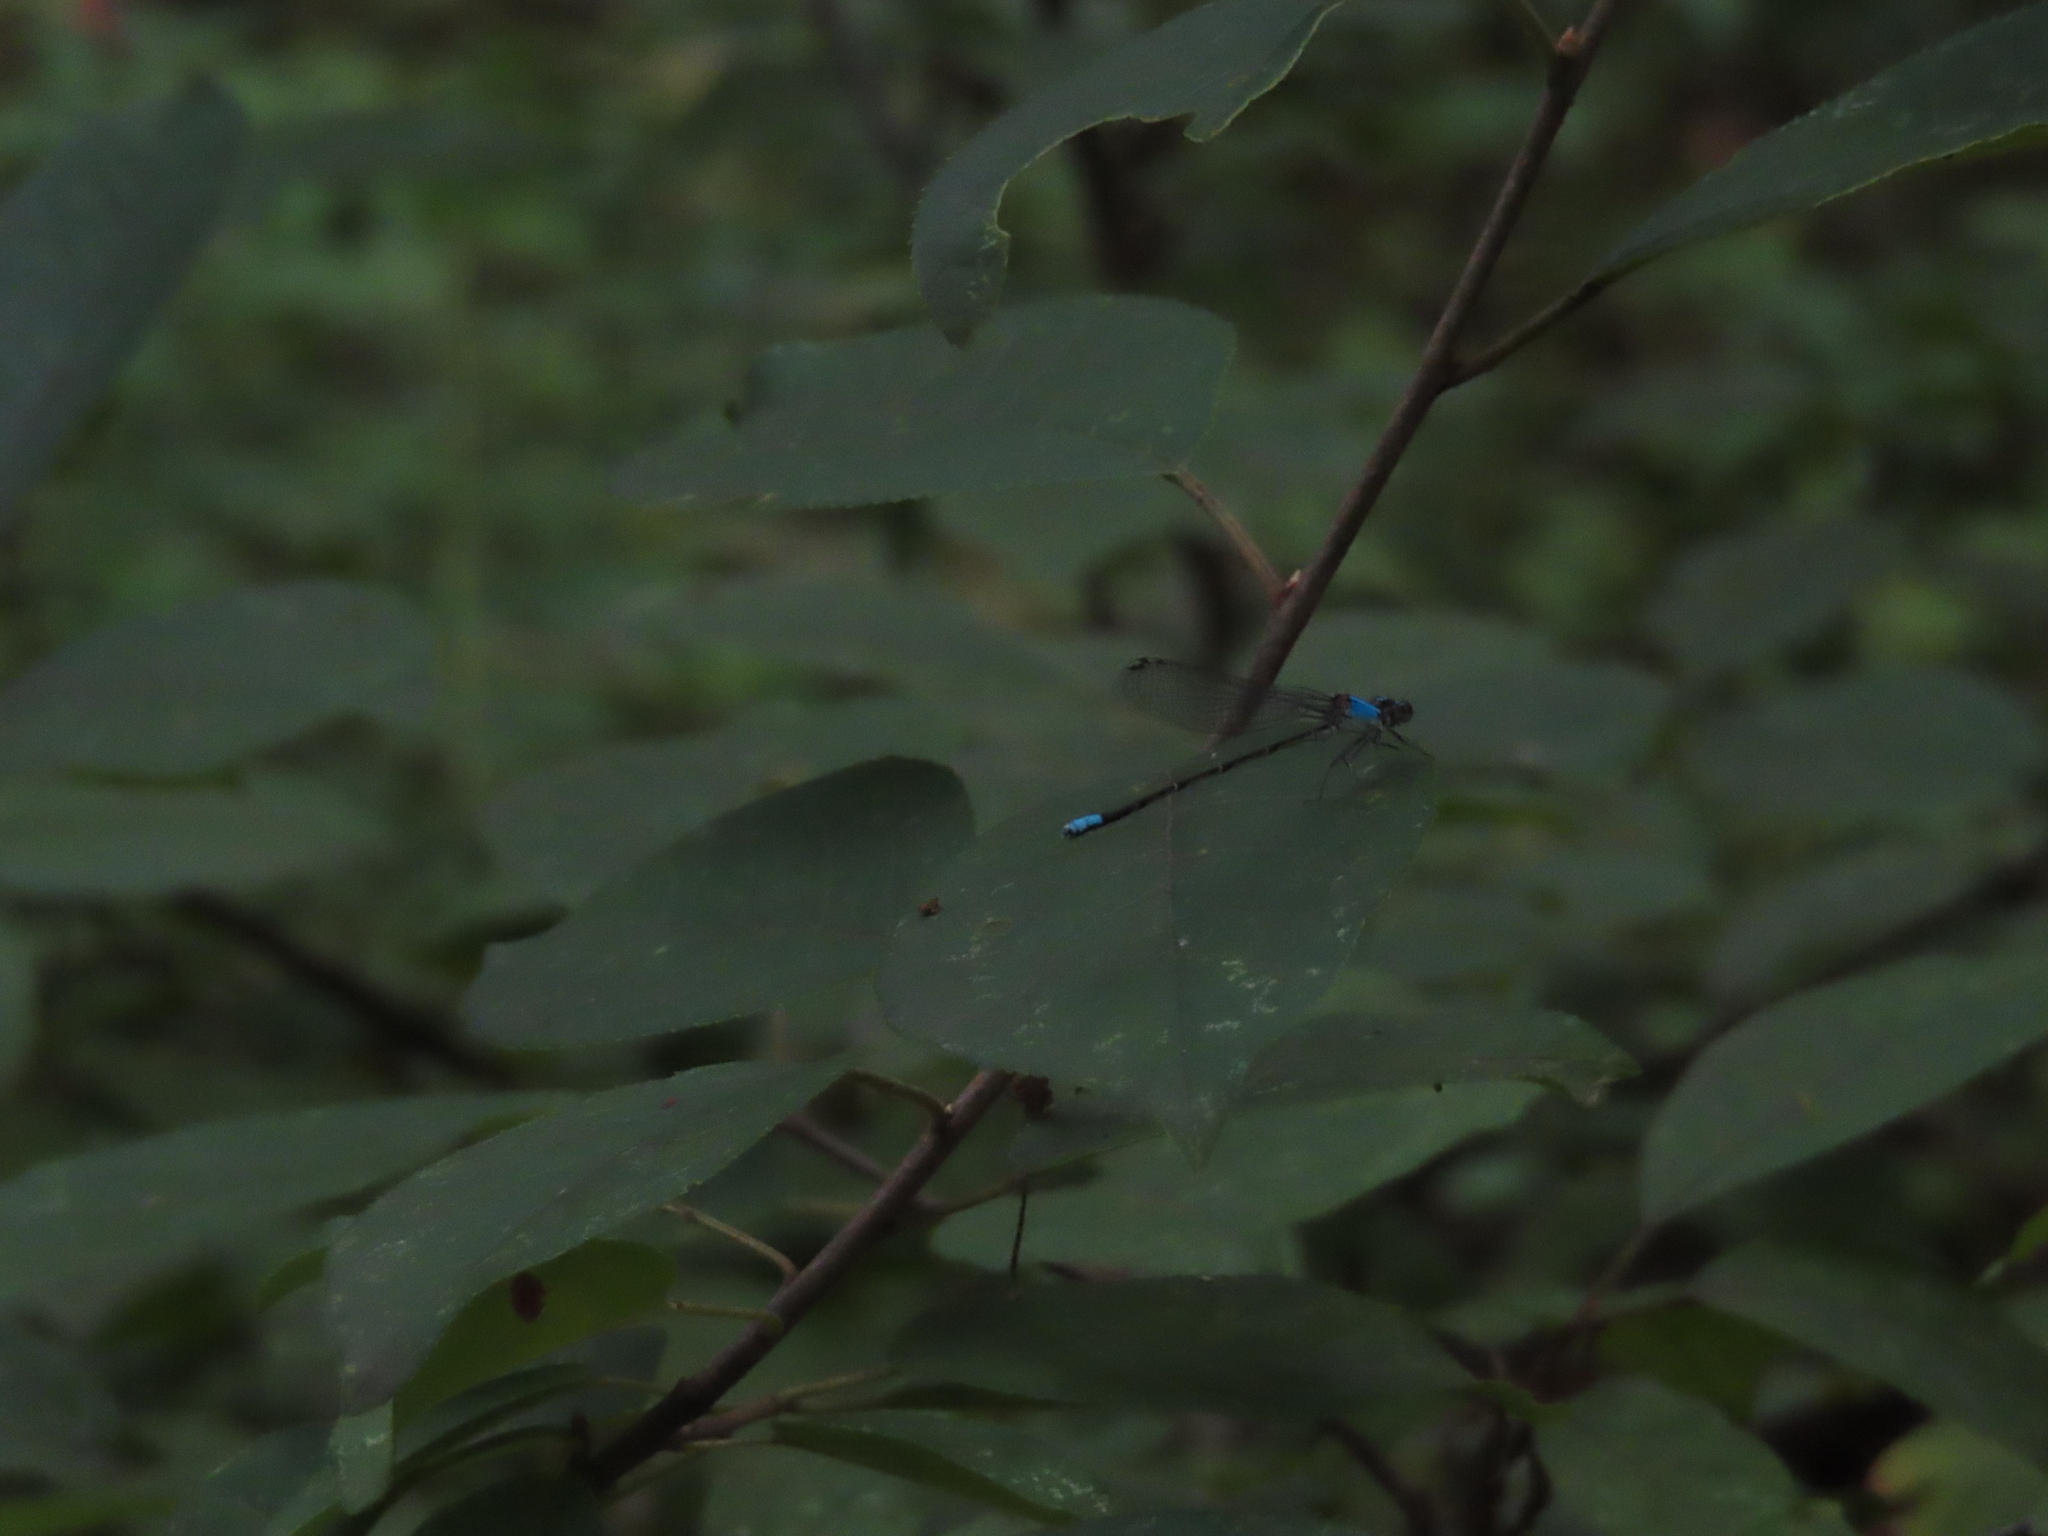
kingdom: Animalia
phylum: Arthropoda
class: Insecta
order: Odonata
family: Coenagrionidae
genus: Argia
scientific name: Argia apicalis
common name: Blue-fronted dancer
